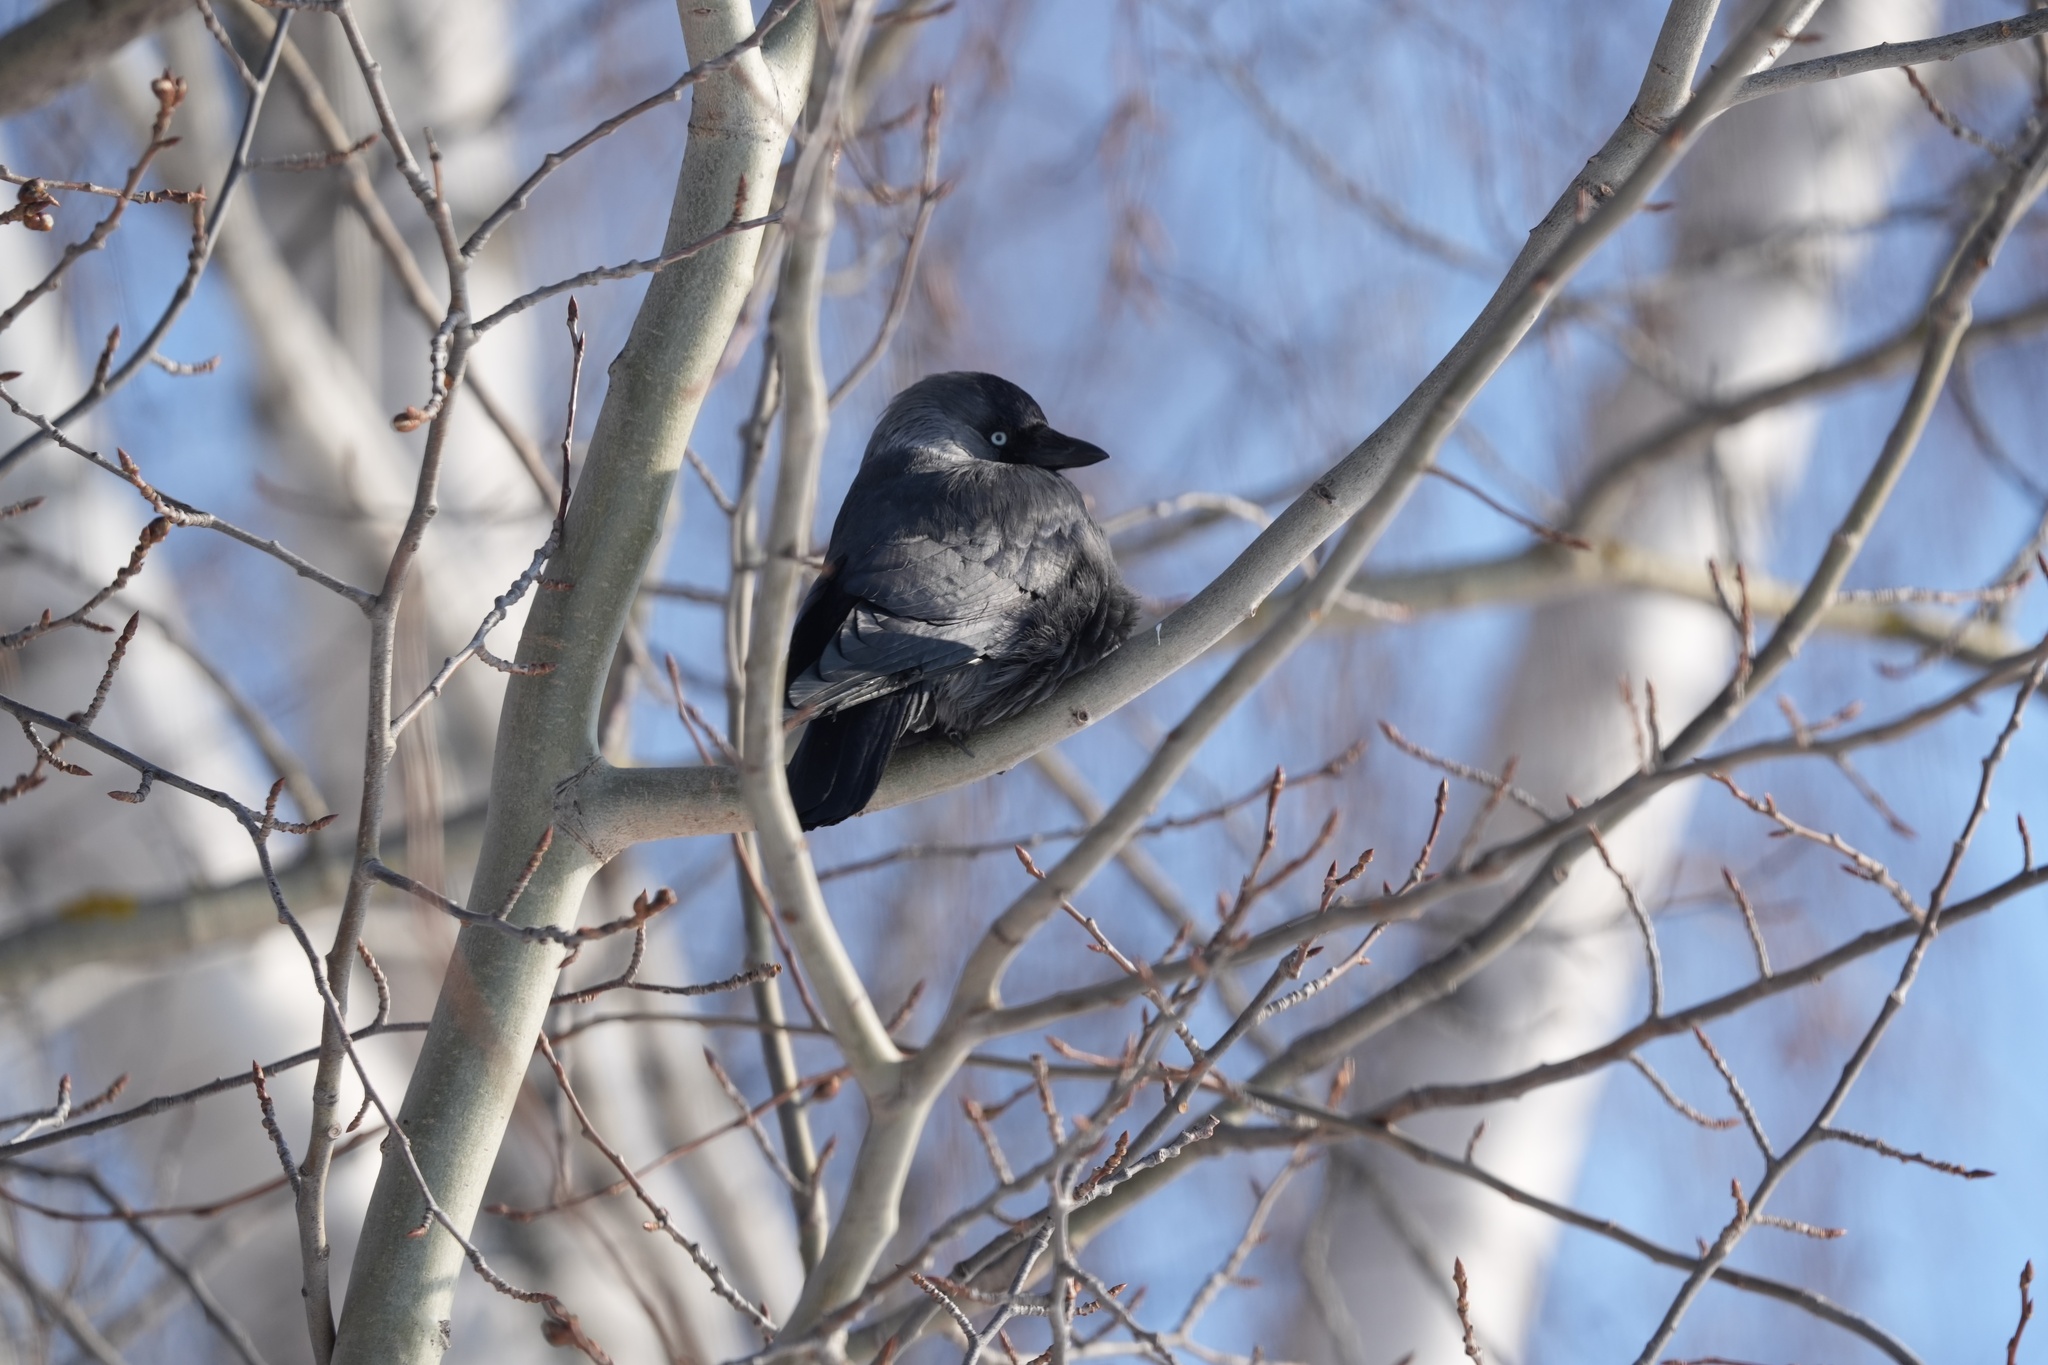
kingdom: Animalia
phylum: Chordata
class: Aves
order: Passeriformes
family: Corvidae
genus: Coloeus
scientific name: Coloeus monedula
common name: Western jackdaw
